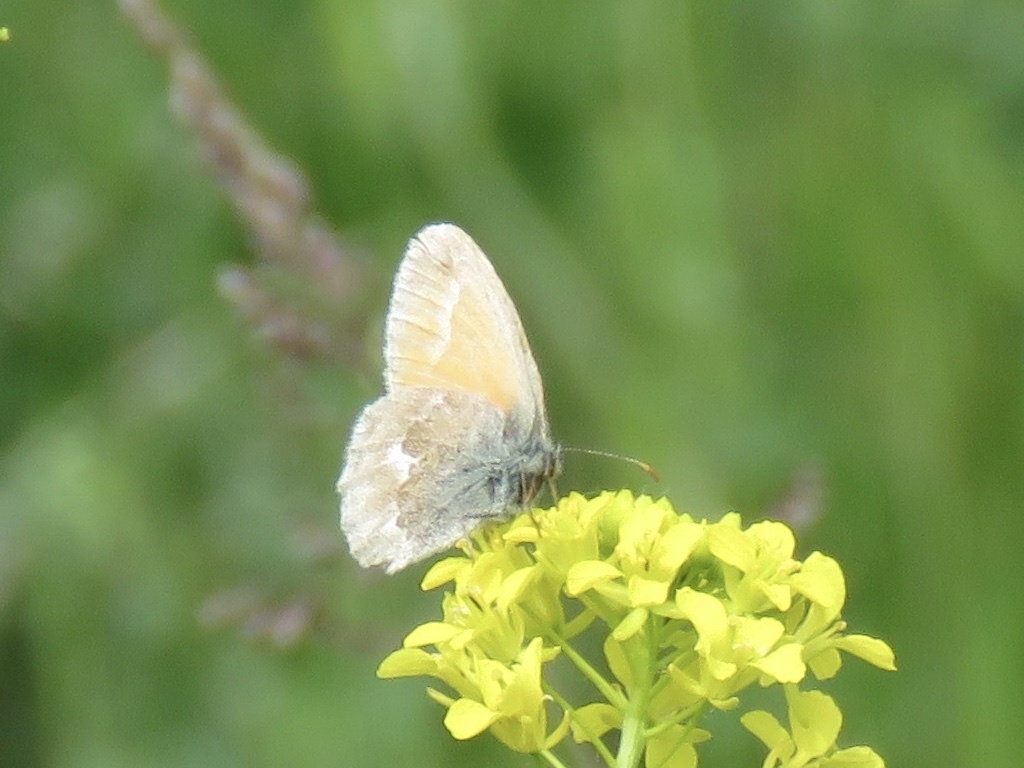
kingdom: Animalia
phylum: Arthropoda
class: Insecta
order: Lepidoptera
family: Nymphalidae
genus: Coenonympha
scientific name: Coenonympha california
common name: Common ringlet
